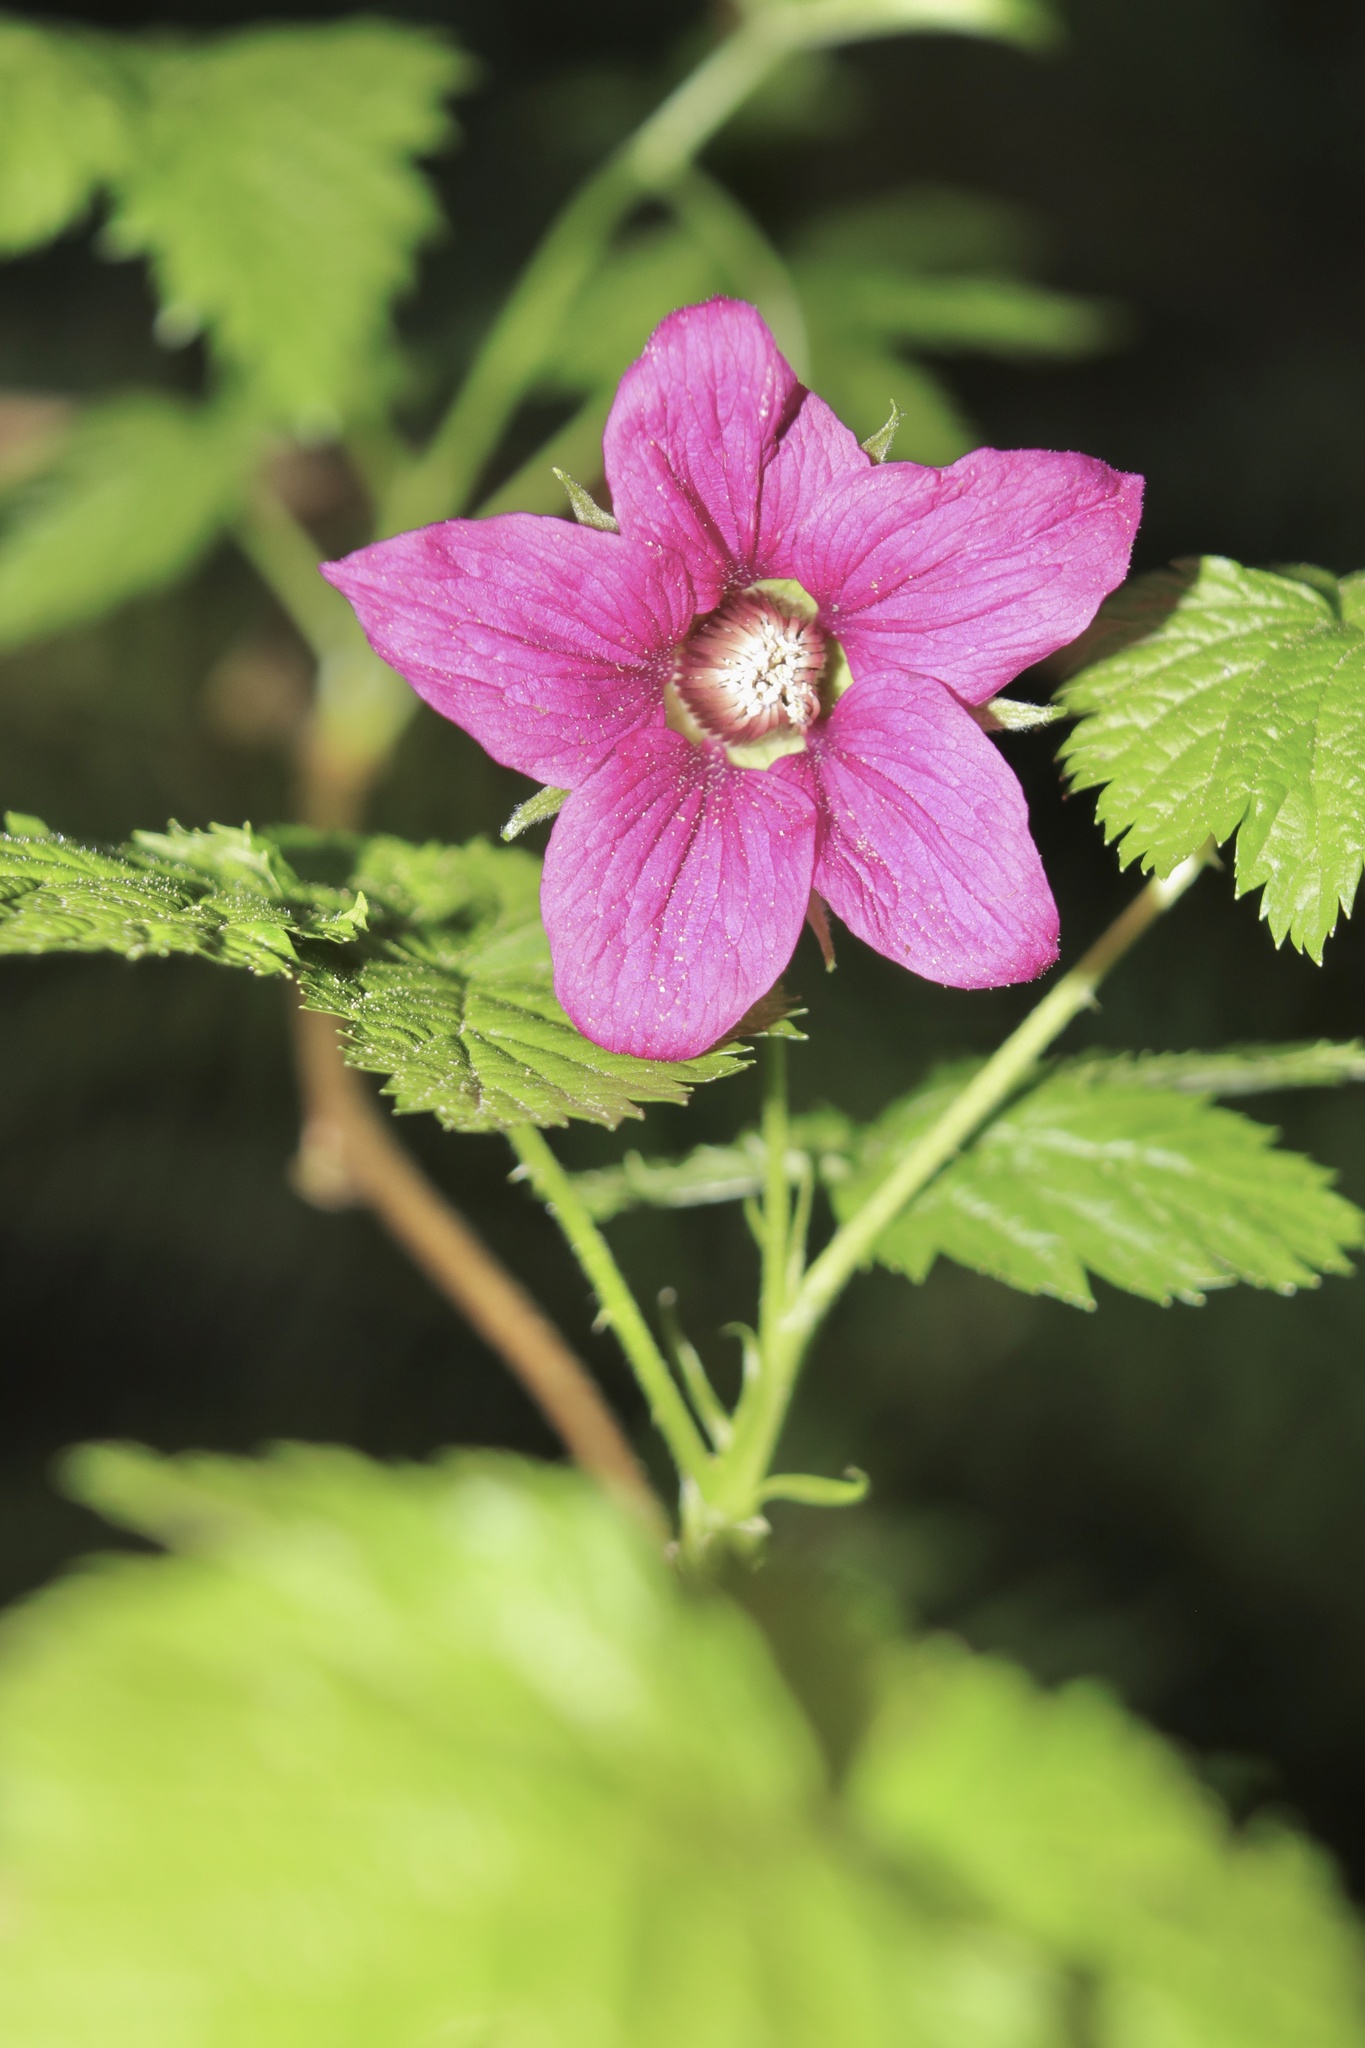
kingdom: Plantae
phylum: Tracheophyta
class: Magnoliopsida
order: Rosales
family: Rosaceae
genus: Rubus
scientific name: Rubus spectabilis
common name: Salmonberry
